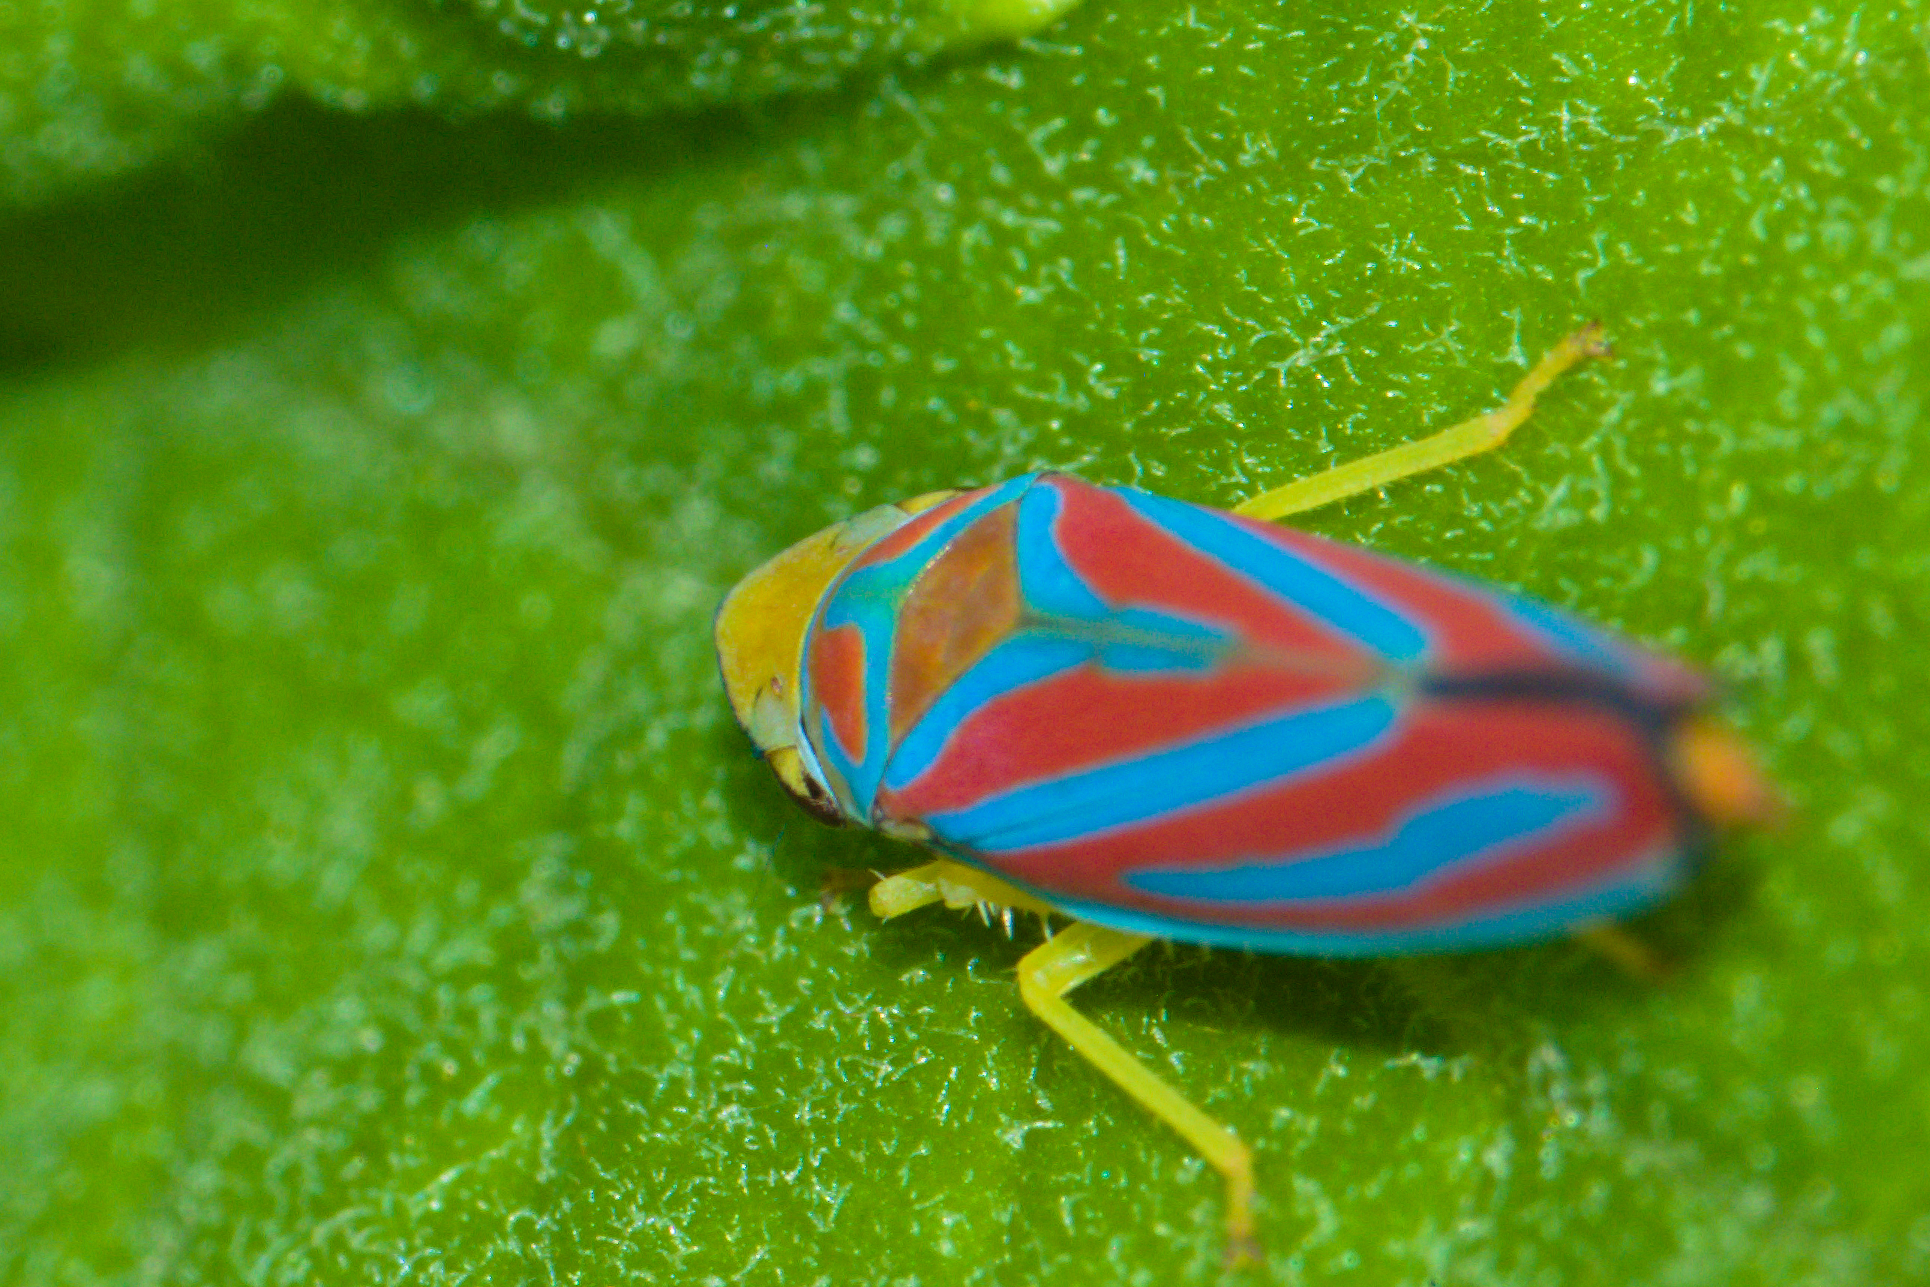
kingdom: Animalia
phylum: Arthropoda
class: Insecta
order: Hemiptera
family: Cicadellidae
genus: Graphocephala
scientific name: Graphocephala coccinea
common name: Candy-striped leafhopper
